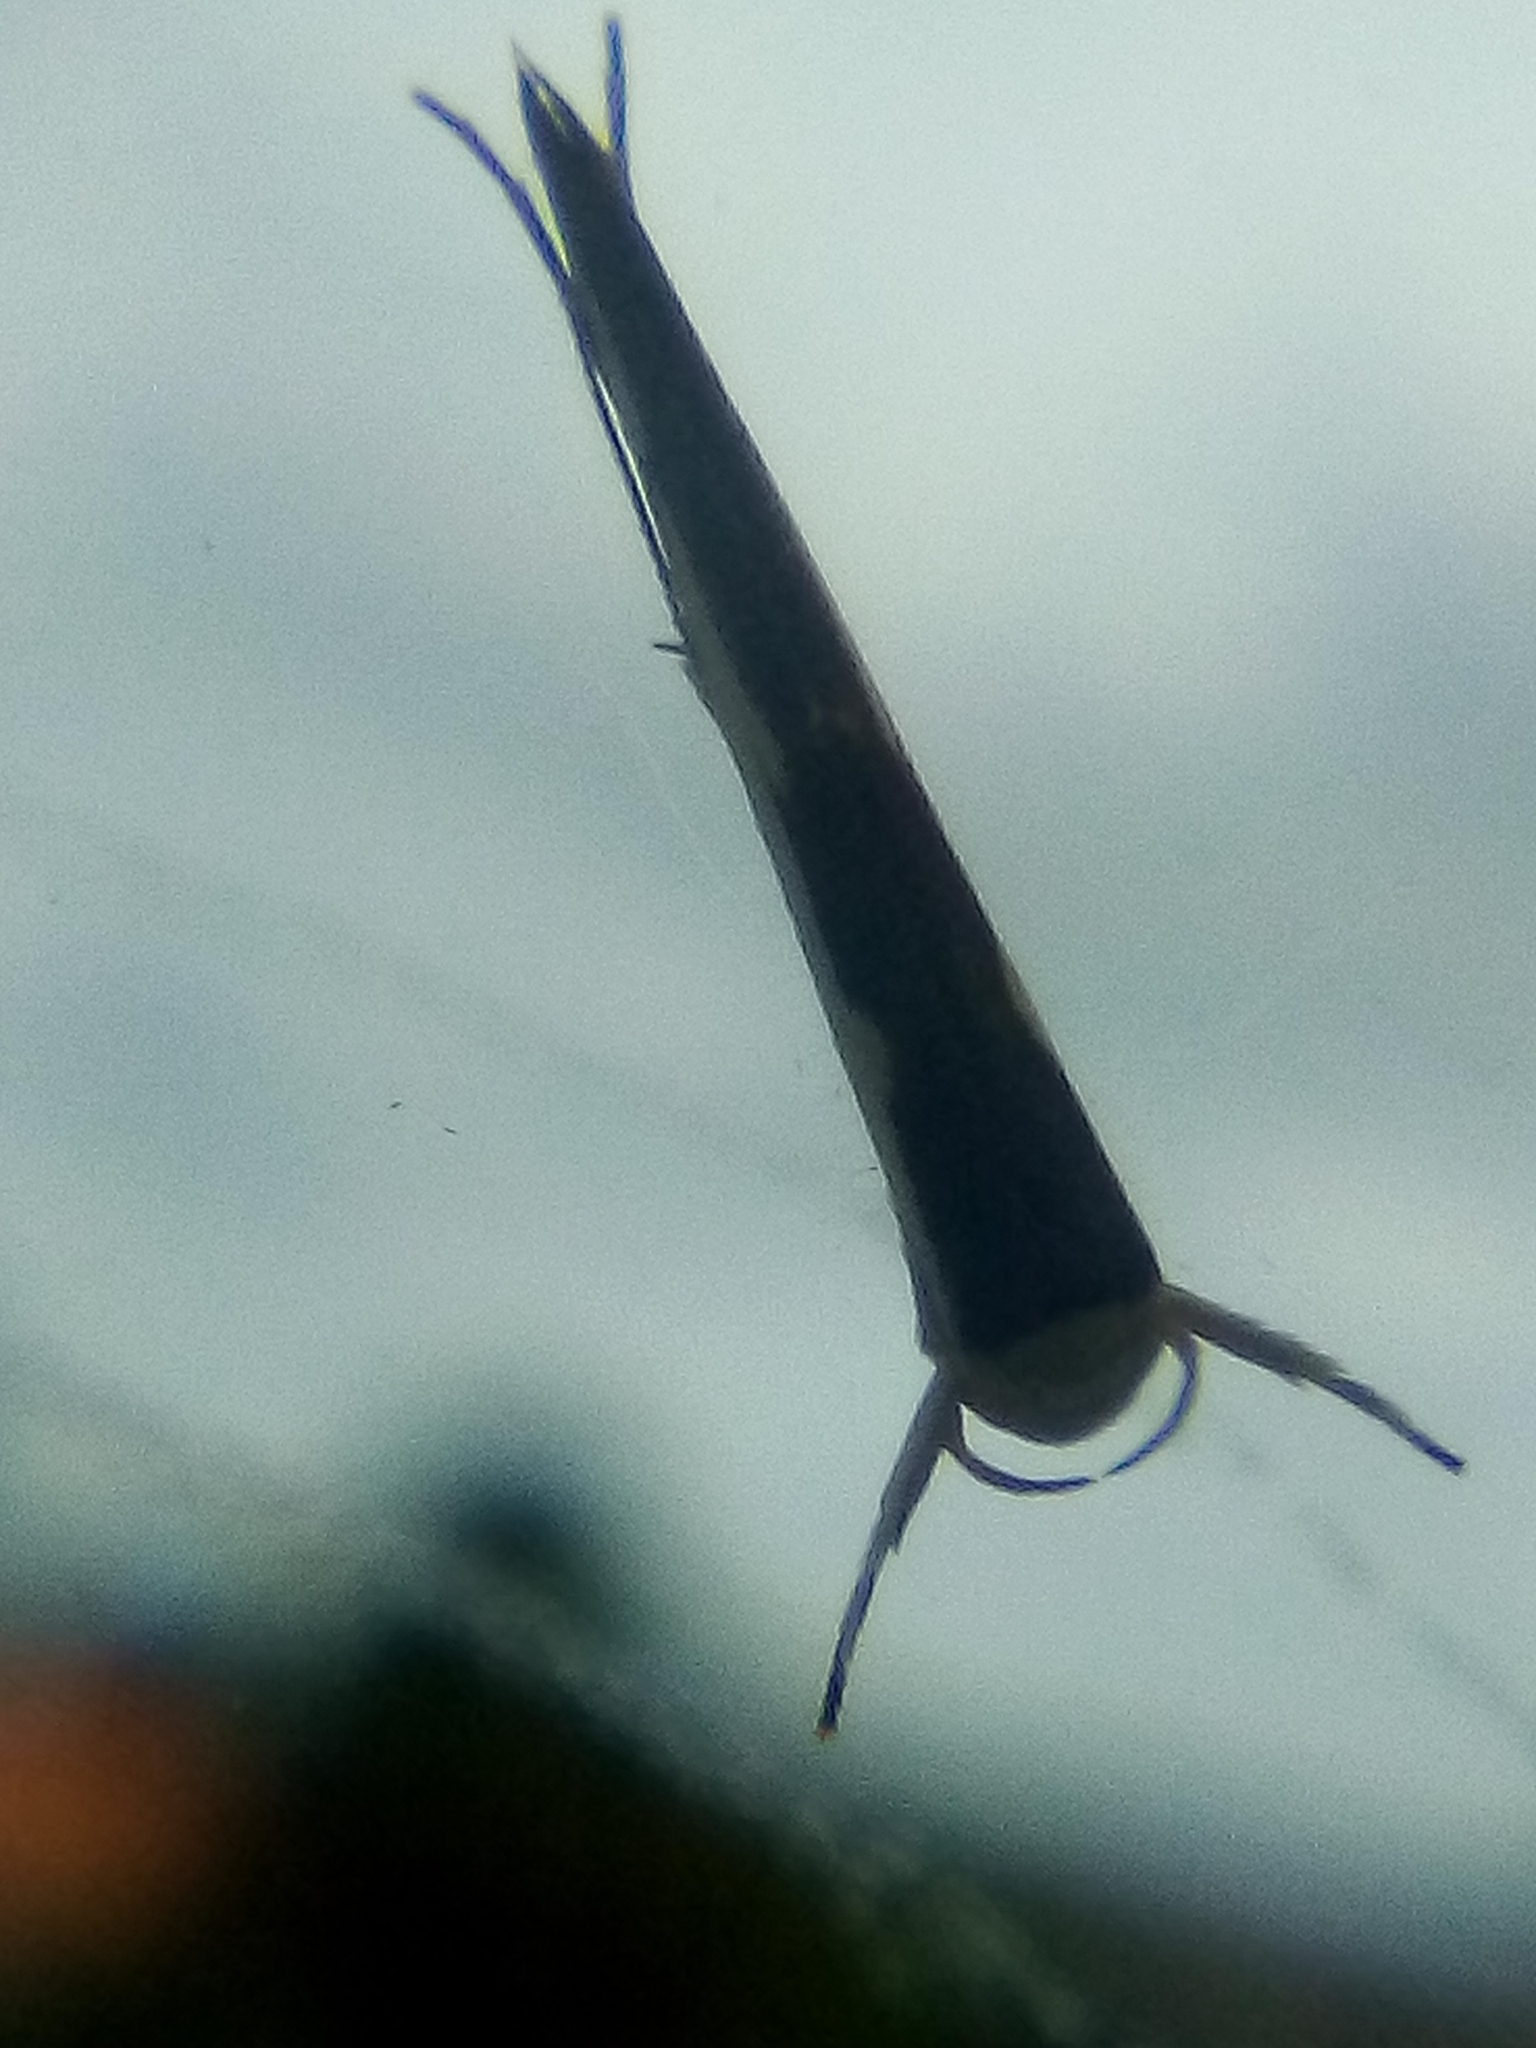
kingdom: Animalia
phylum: Arthropoda
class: Insecta
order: Lepidoptera
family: Roeslerstammiidae
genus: Vanicela
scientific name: Vanicela disjunctella
